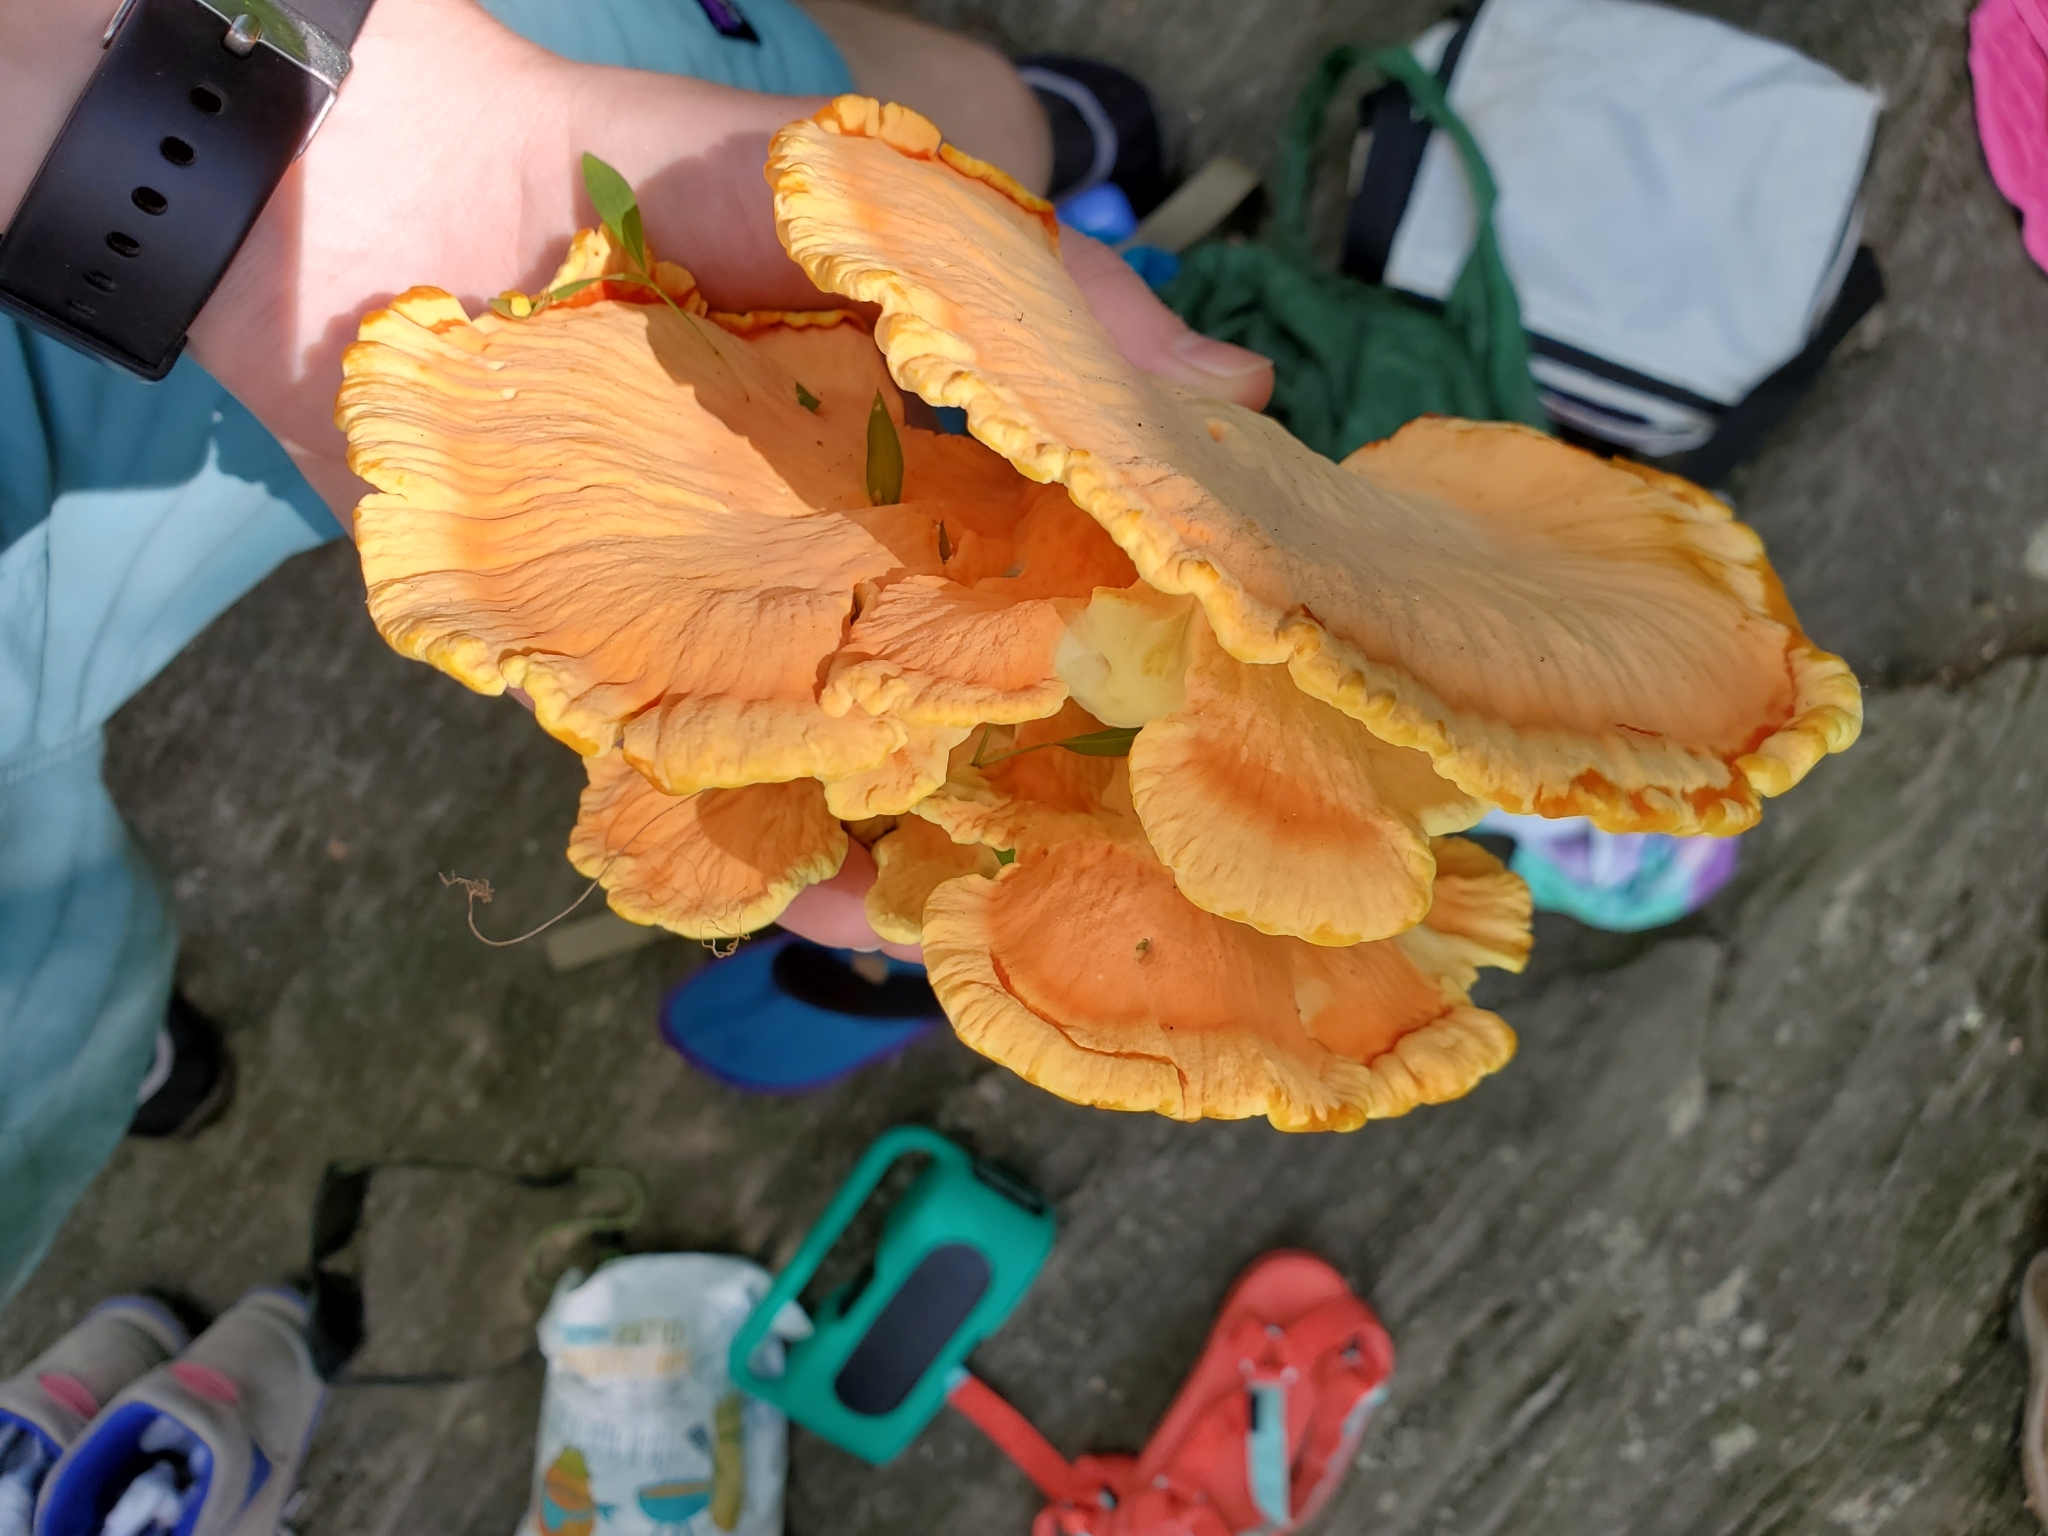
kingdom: Fungi
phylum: Basidiomycota
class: Agaricomycetes
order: Polyporales
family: Laetiporaceae
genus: Laetiporus
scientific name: Laetiporus sulphureus
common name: Chicken of the woods
